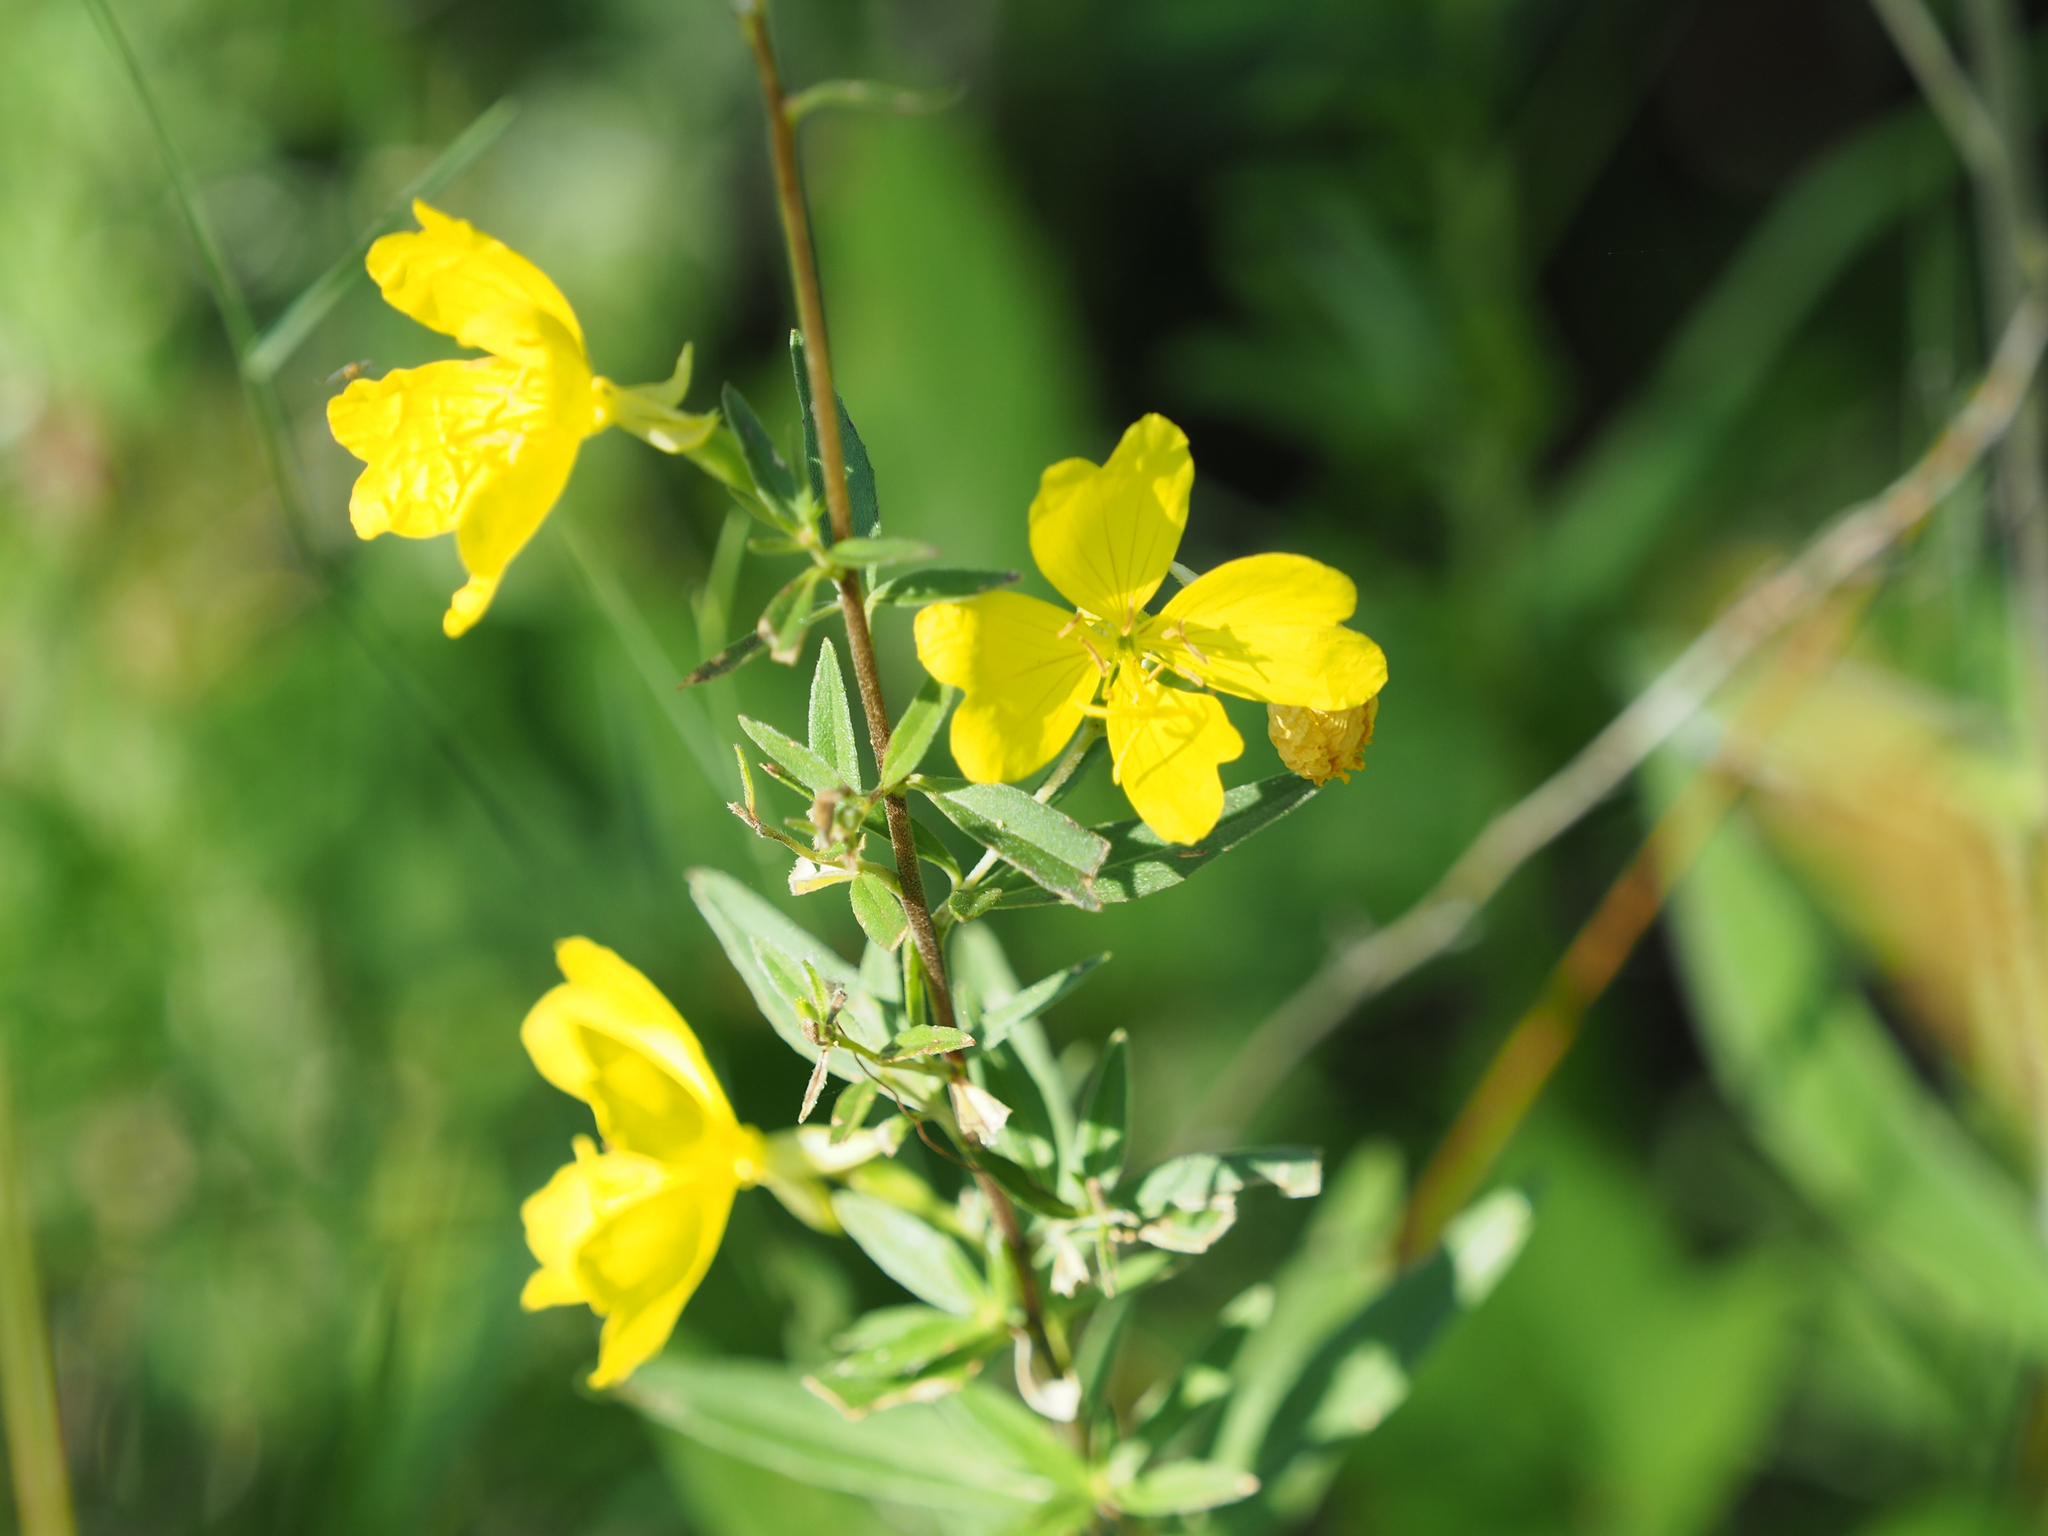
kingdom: Plantae
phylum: Tracheophyta
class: Magnoliopsida
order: Myrtales
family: Onagraceae
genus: Oenothera
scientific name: Oenothera fruticosa
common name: Southern sundrops
